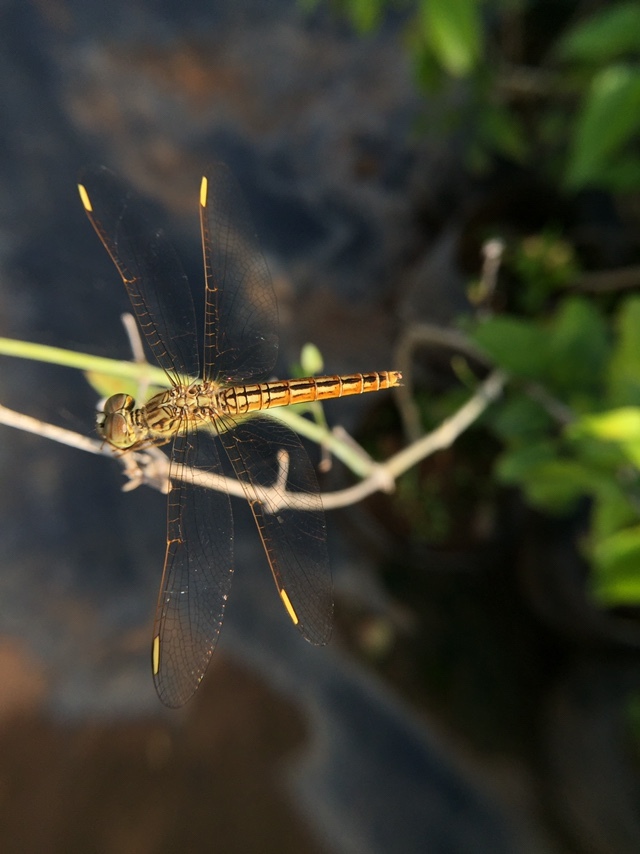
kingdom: Animalia
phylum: Arthropoda
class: Insecta
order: Odonata
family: Libellulidae
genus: Brachythemis
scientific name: Brachythemis contaminata
